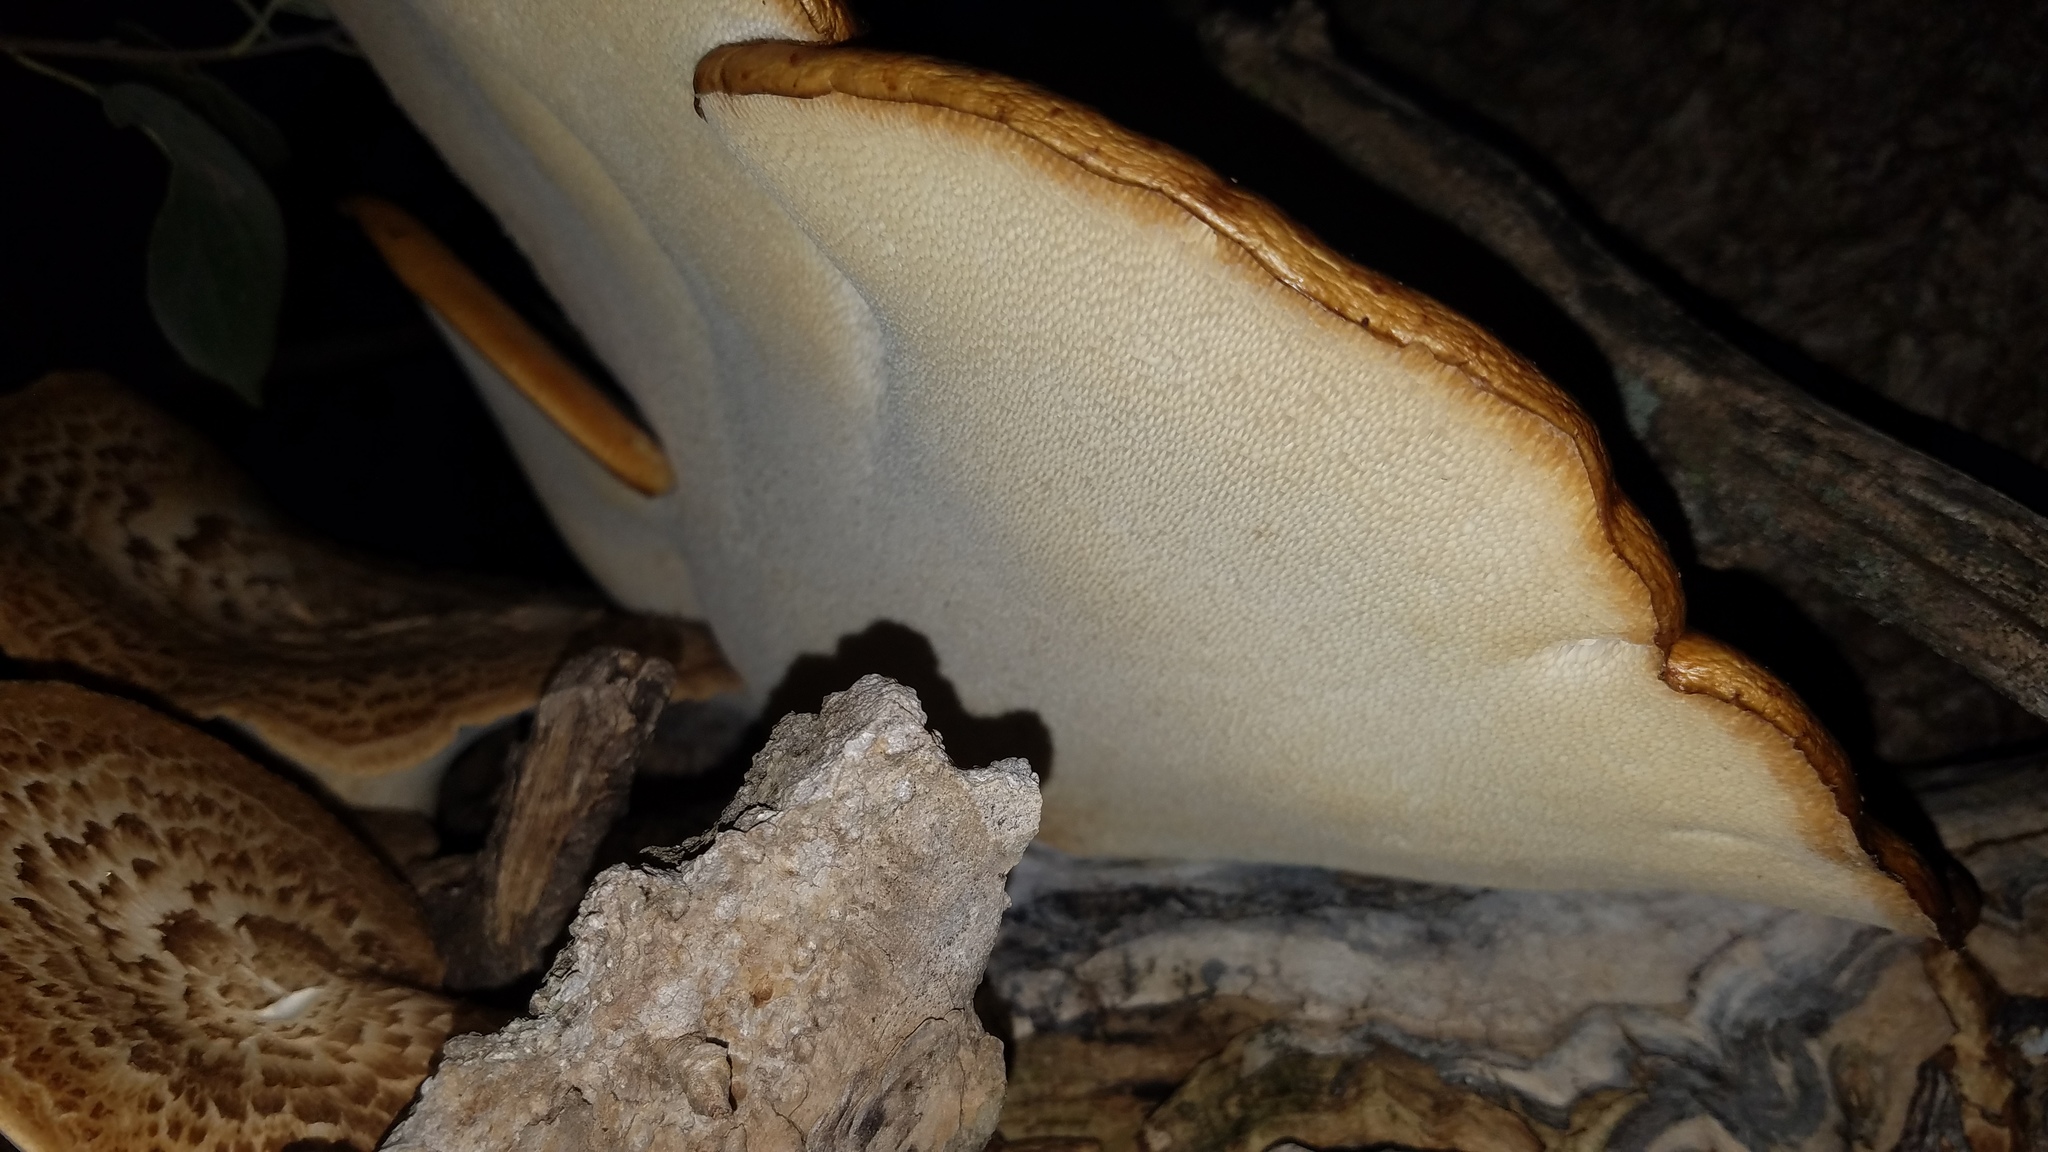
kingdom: Fungi
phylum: Basidiomycota
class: Agaricomycetes
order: Polyporales
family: Polyporaceae
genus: Cerioporus
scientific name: Cerioporus squamosus
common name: Dryad's saddle
